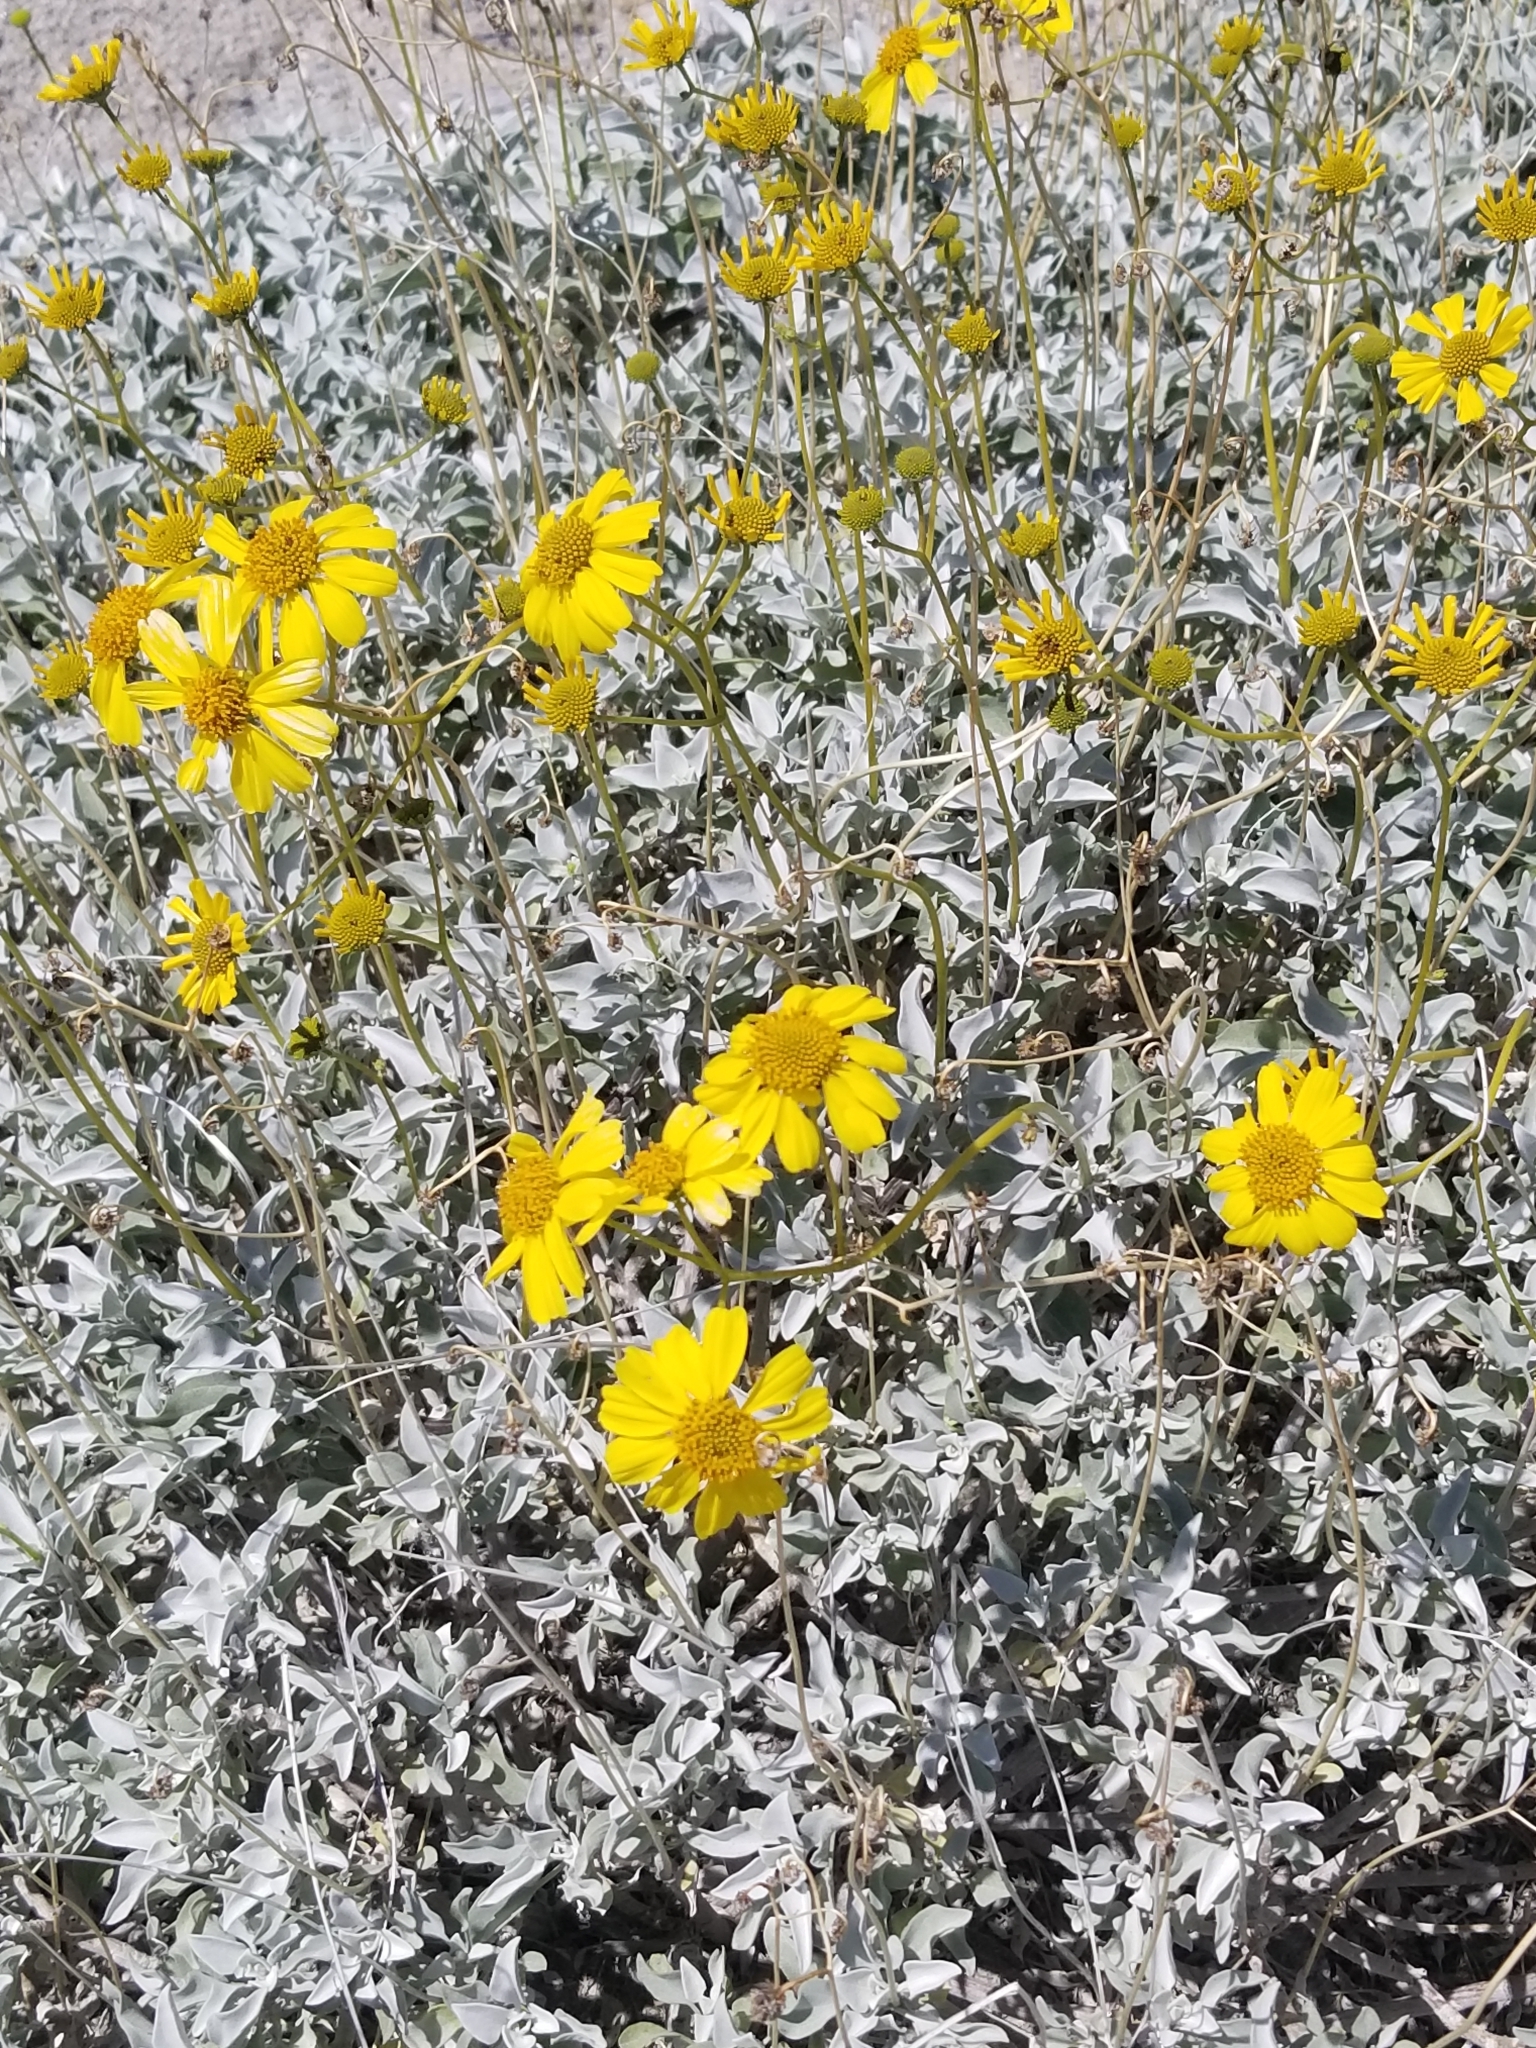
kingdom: Plantae
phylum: Tracheophyta
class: Magnoliopsida
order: Asterales
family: Asteraceae
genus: Encelia
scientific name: Encelia farinosa
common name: Brittlebush
